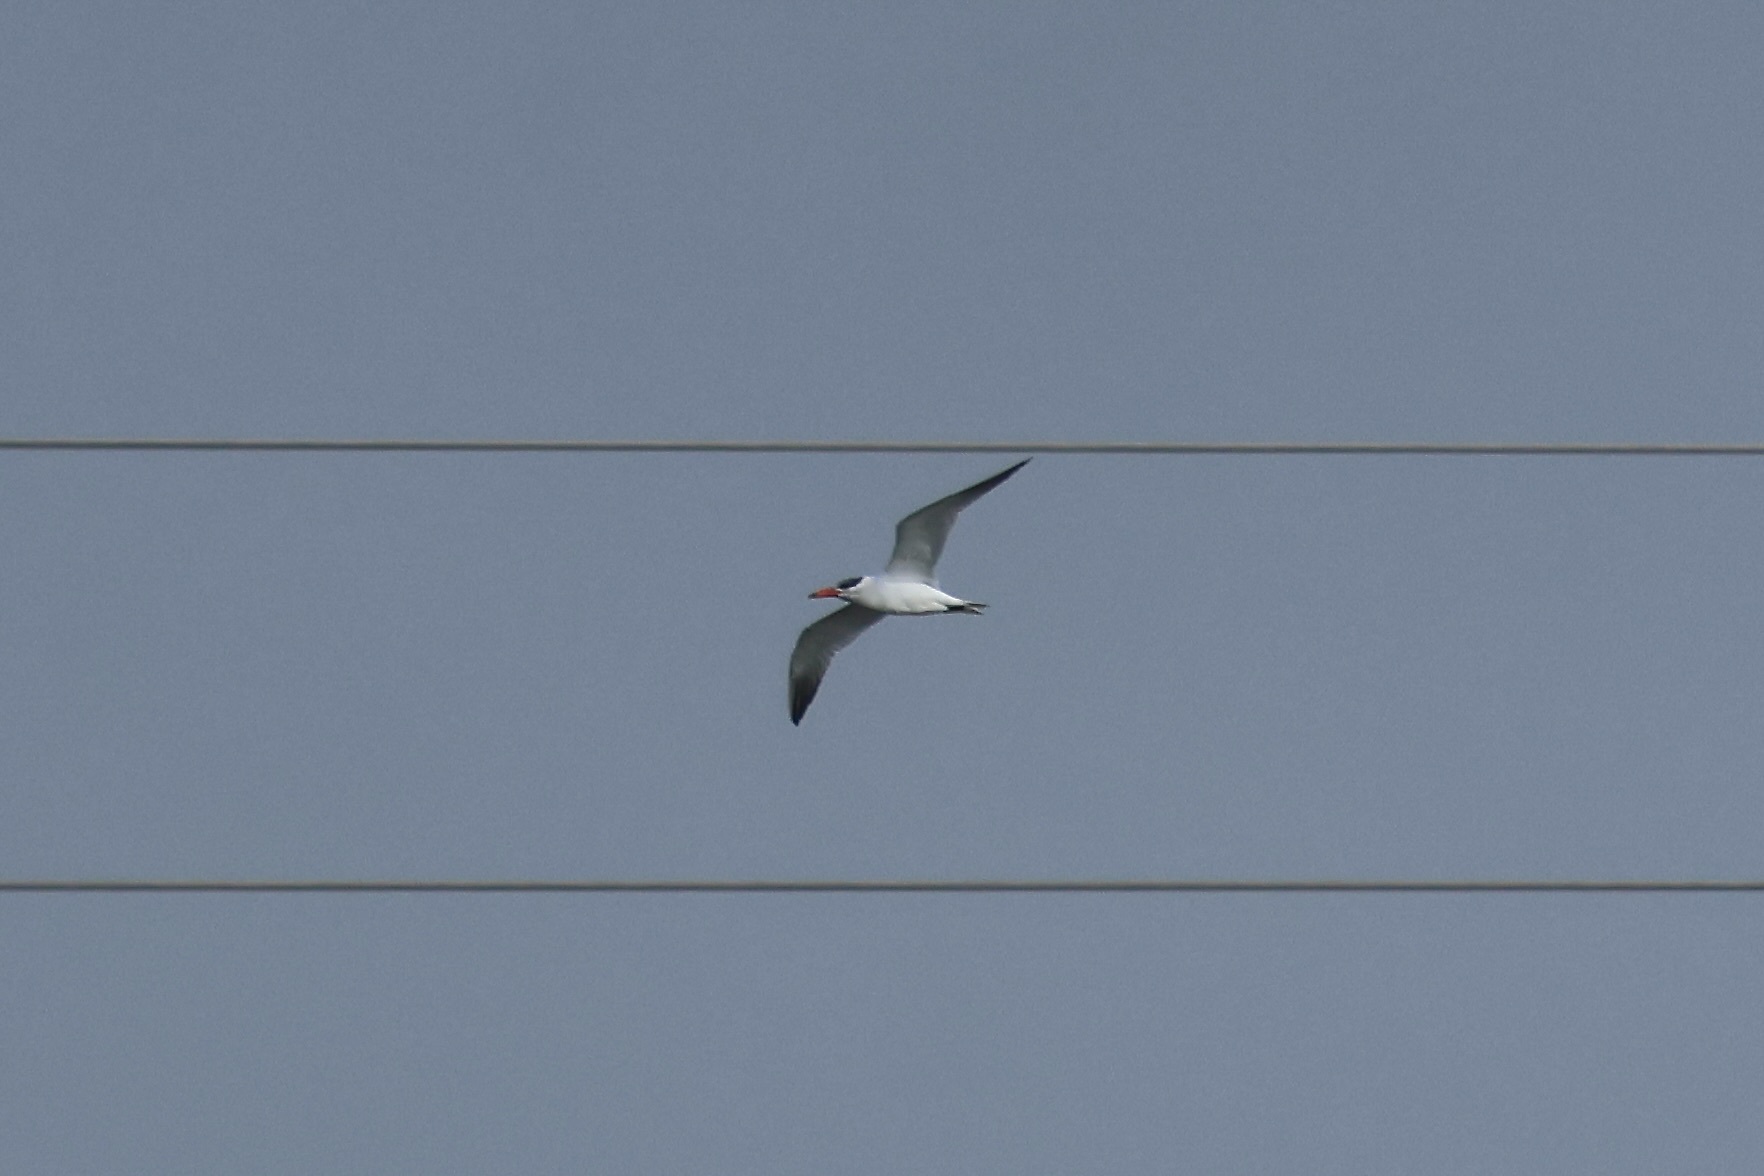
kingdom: Animalia
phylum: Chordata
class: Aves
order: Charadriiformes
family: Laridae
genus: Hydroprogne
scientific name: Hydroprogne caspia
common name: Caspian tern
